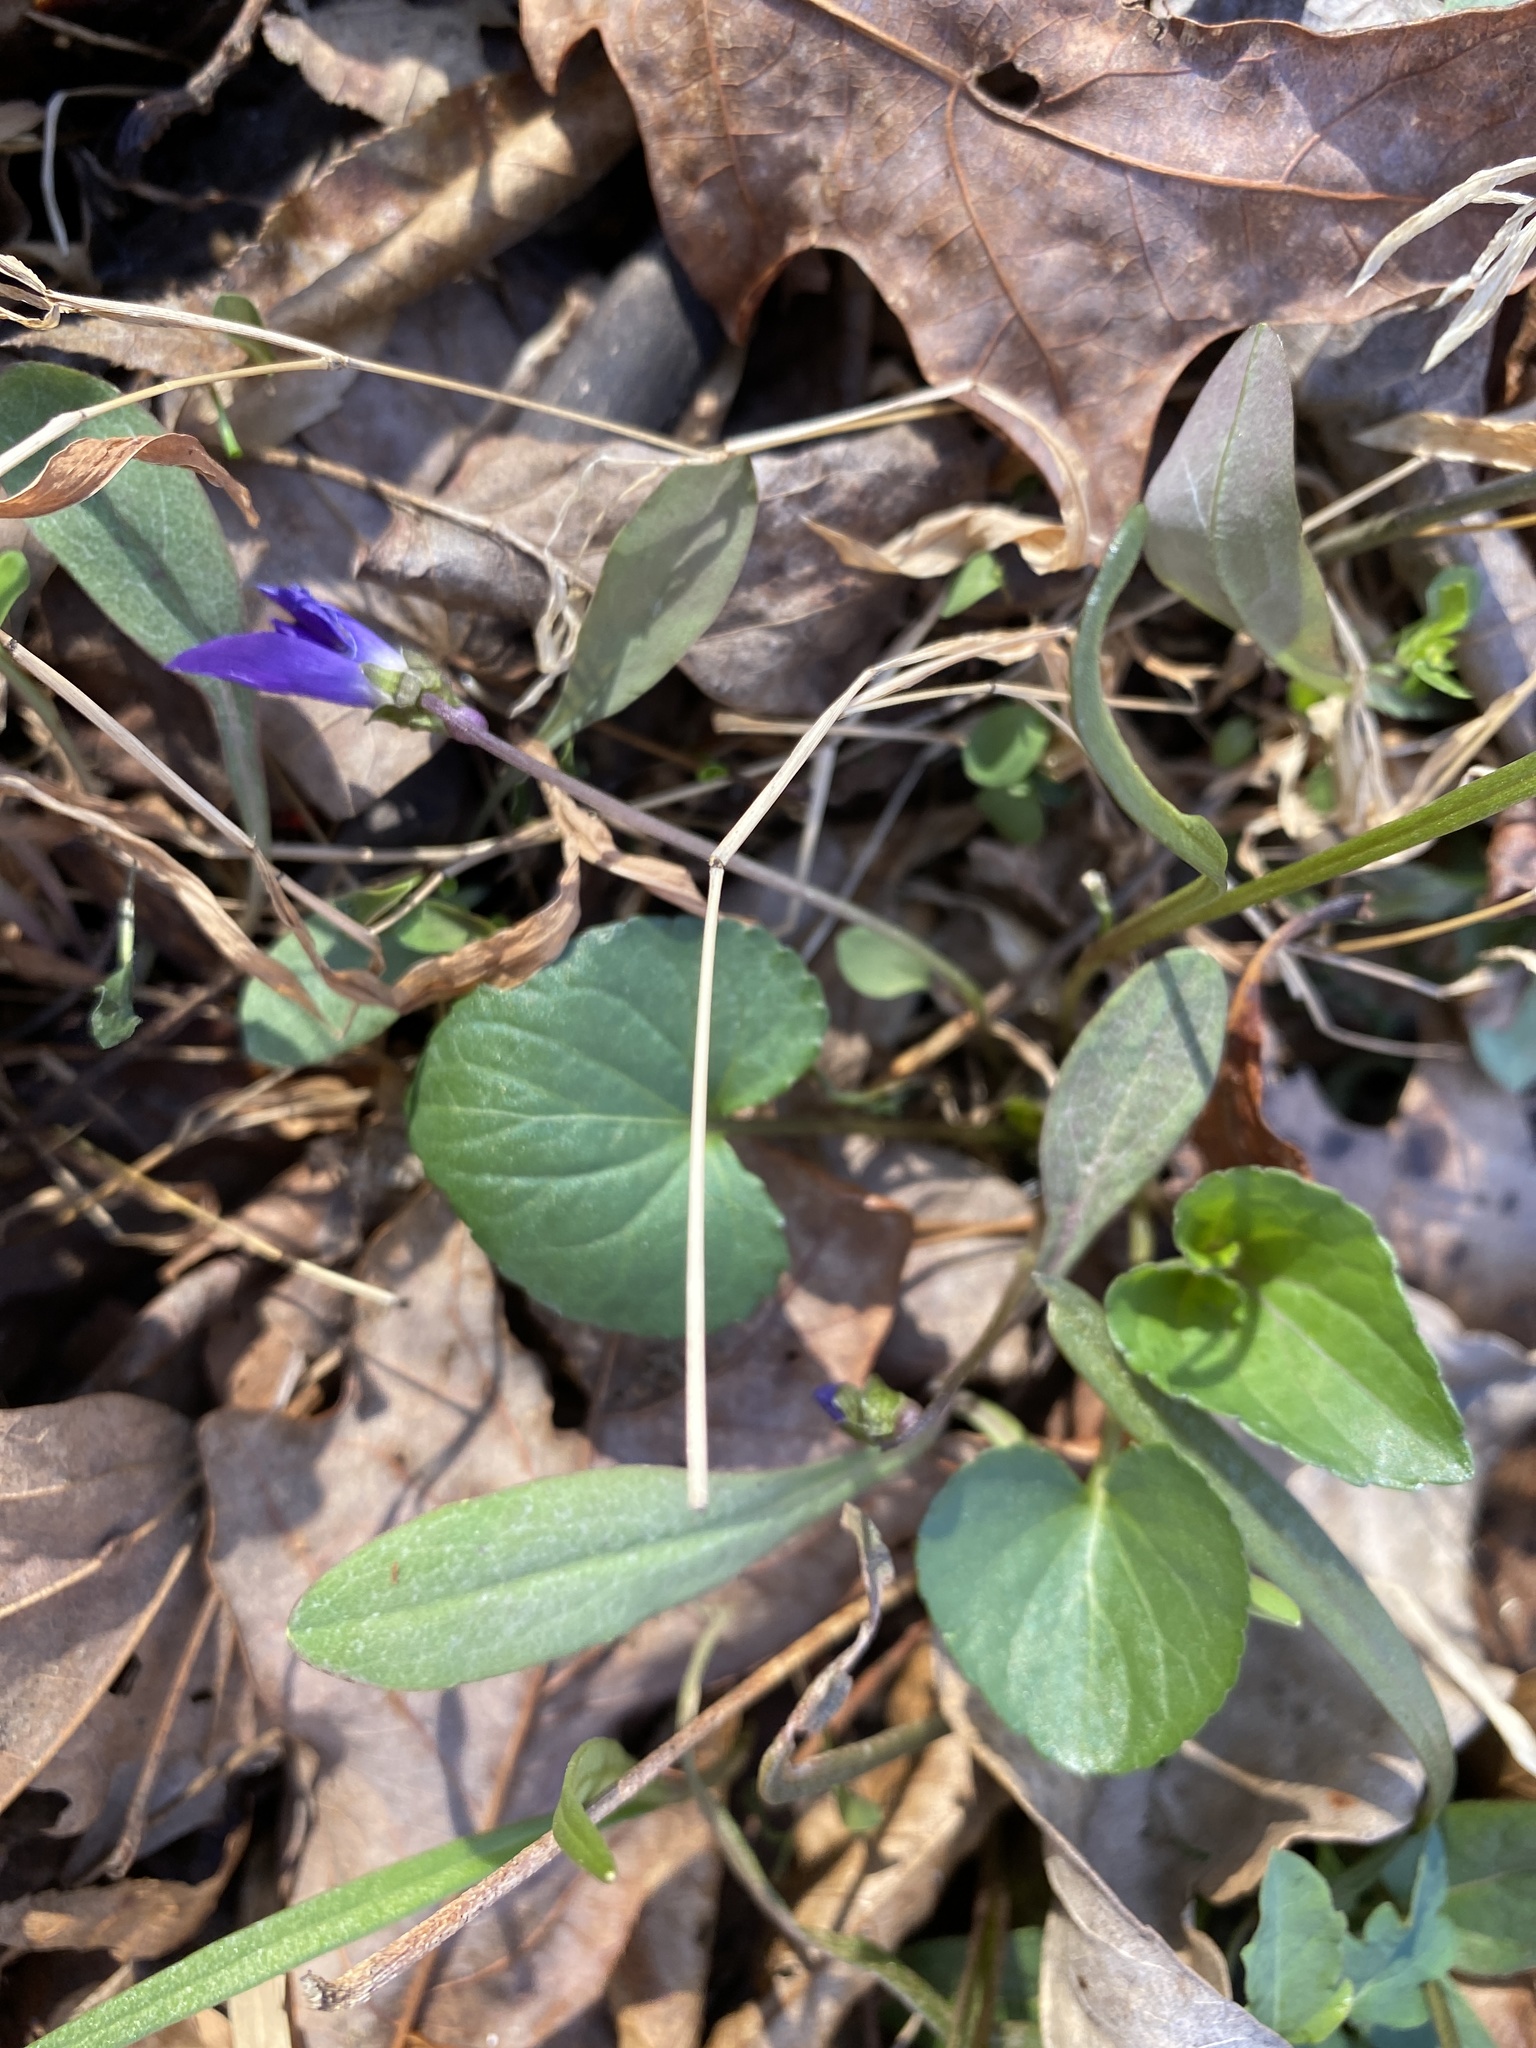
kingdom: Plantae
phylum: Tracheophyta
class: Magnoliopsida
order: Malpighiales
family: Violaceae
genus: Viola
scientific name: Viola sororia
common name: Dooryard violet
